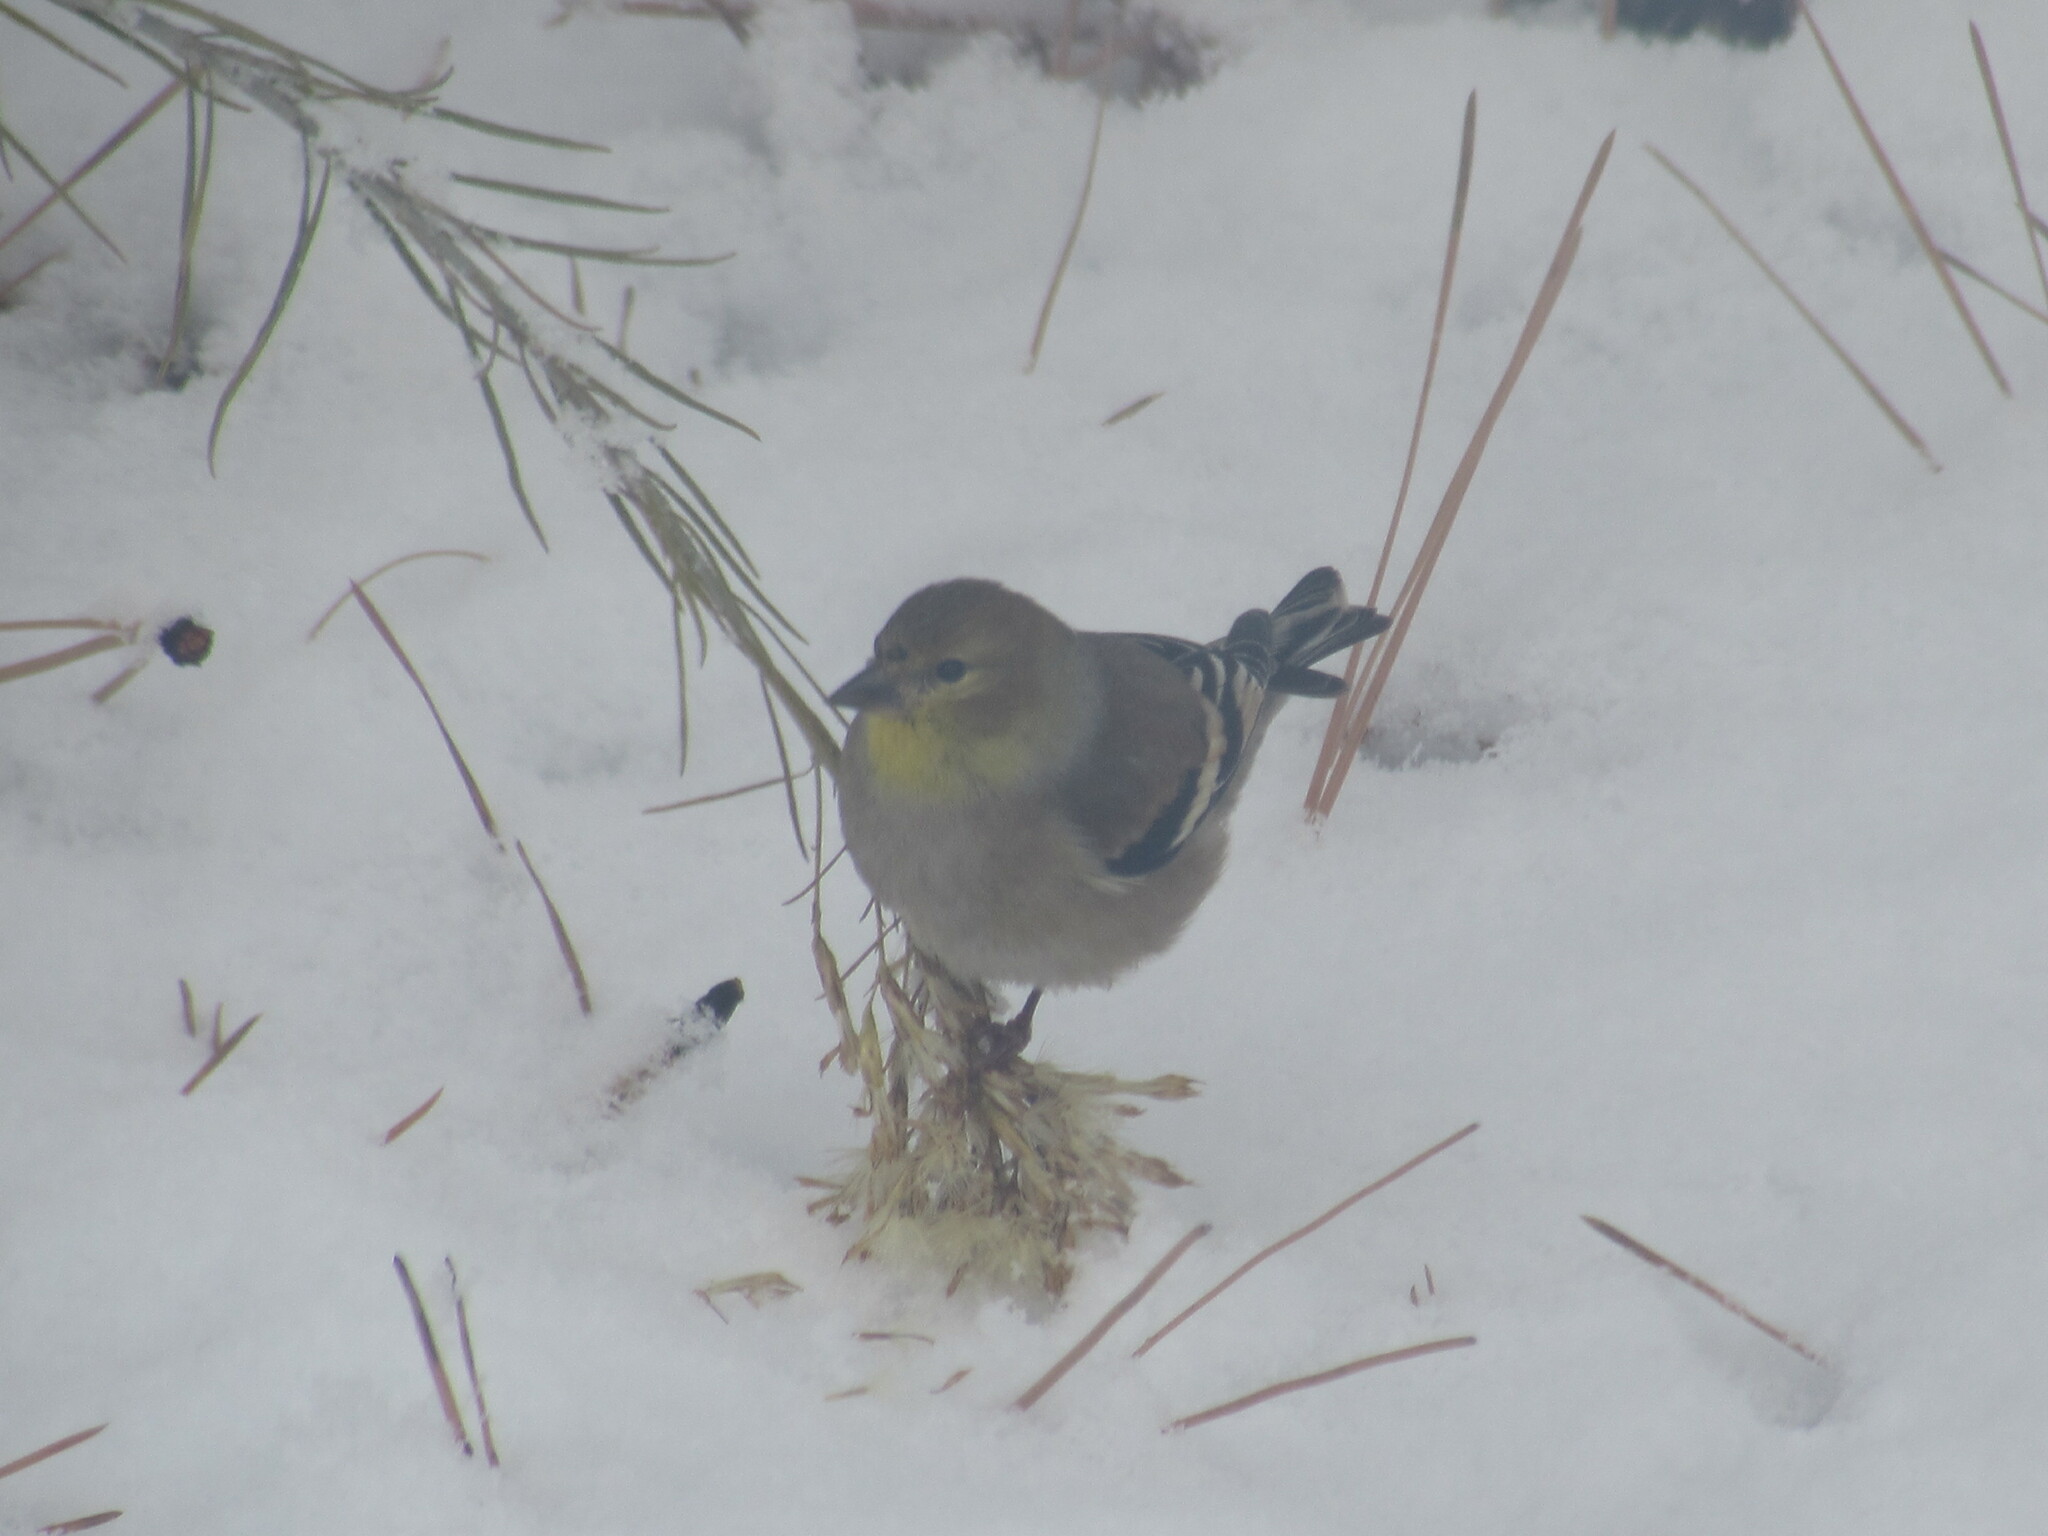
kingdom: Animalia
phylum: Chordata
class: Aves
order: Passeriformes
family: Fringillidae
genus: Spinus
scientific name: Spinus tristis
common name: American goldfinch
